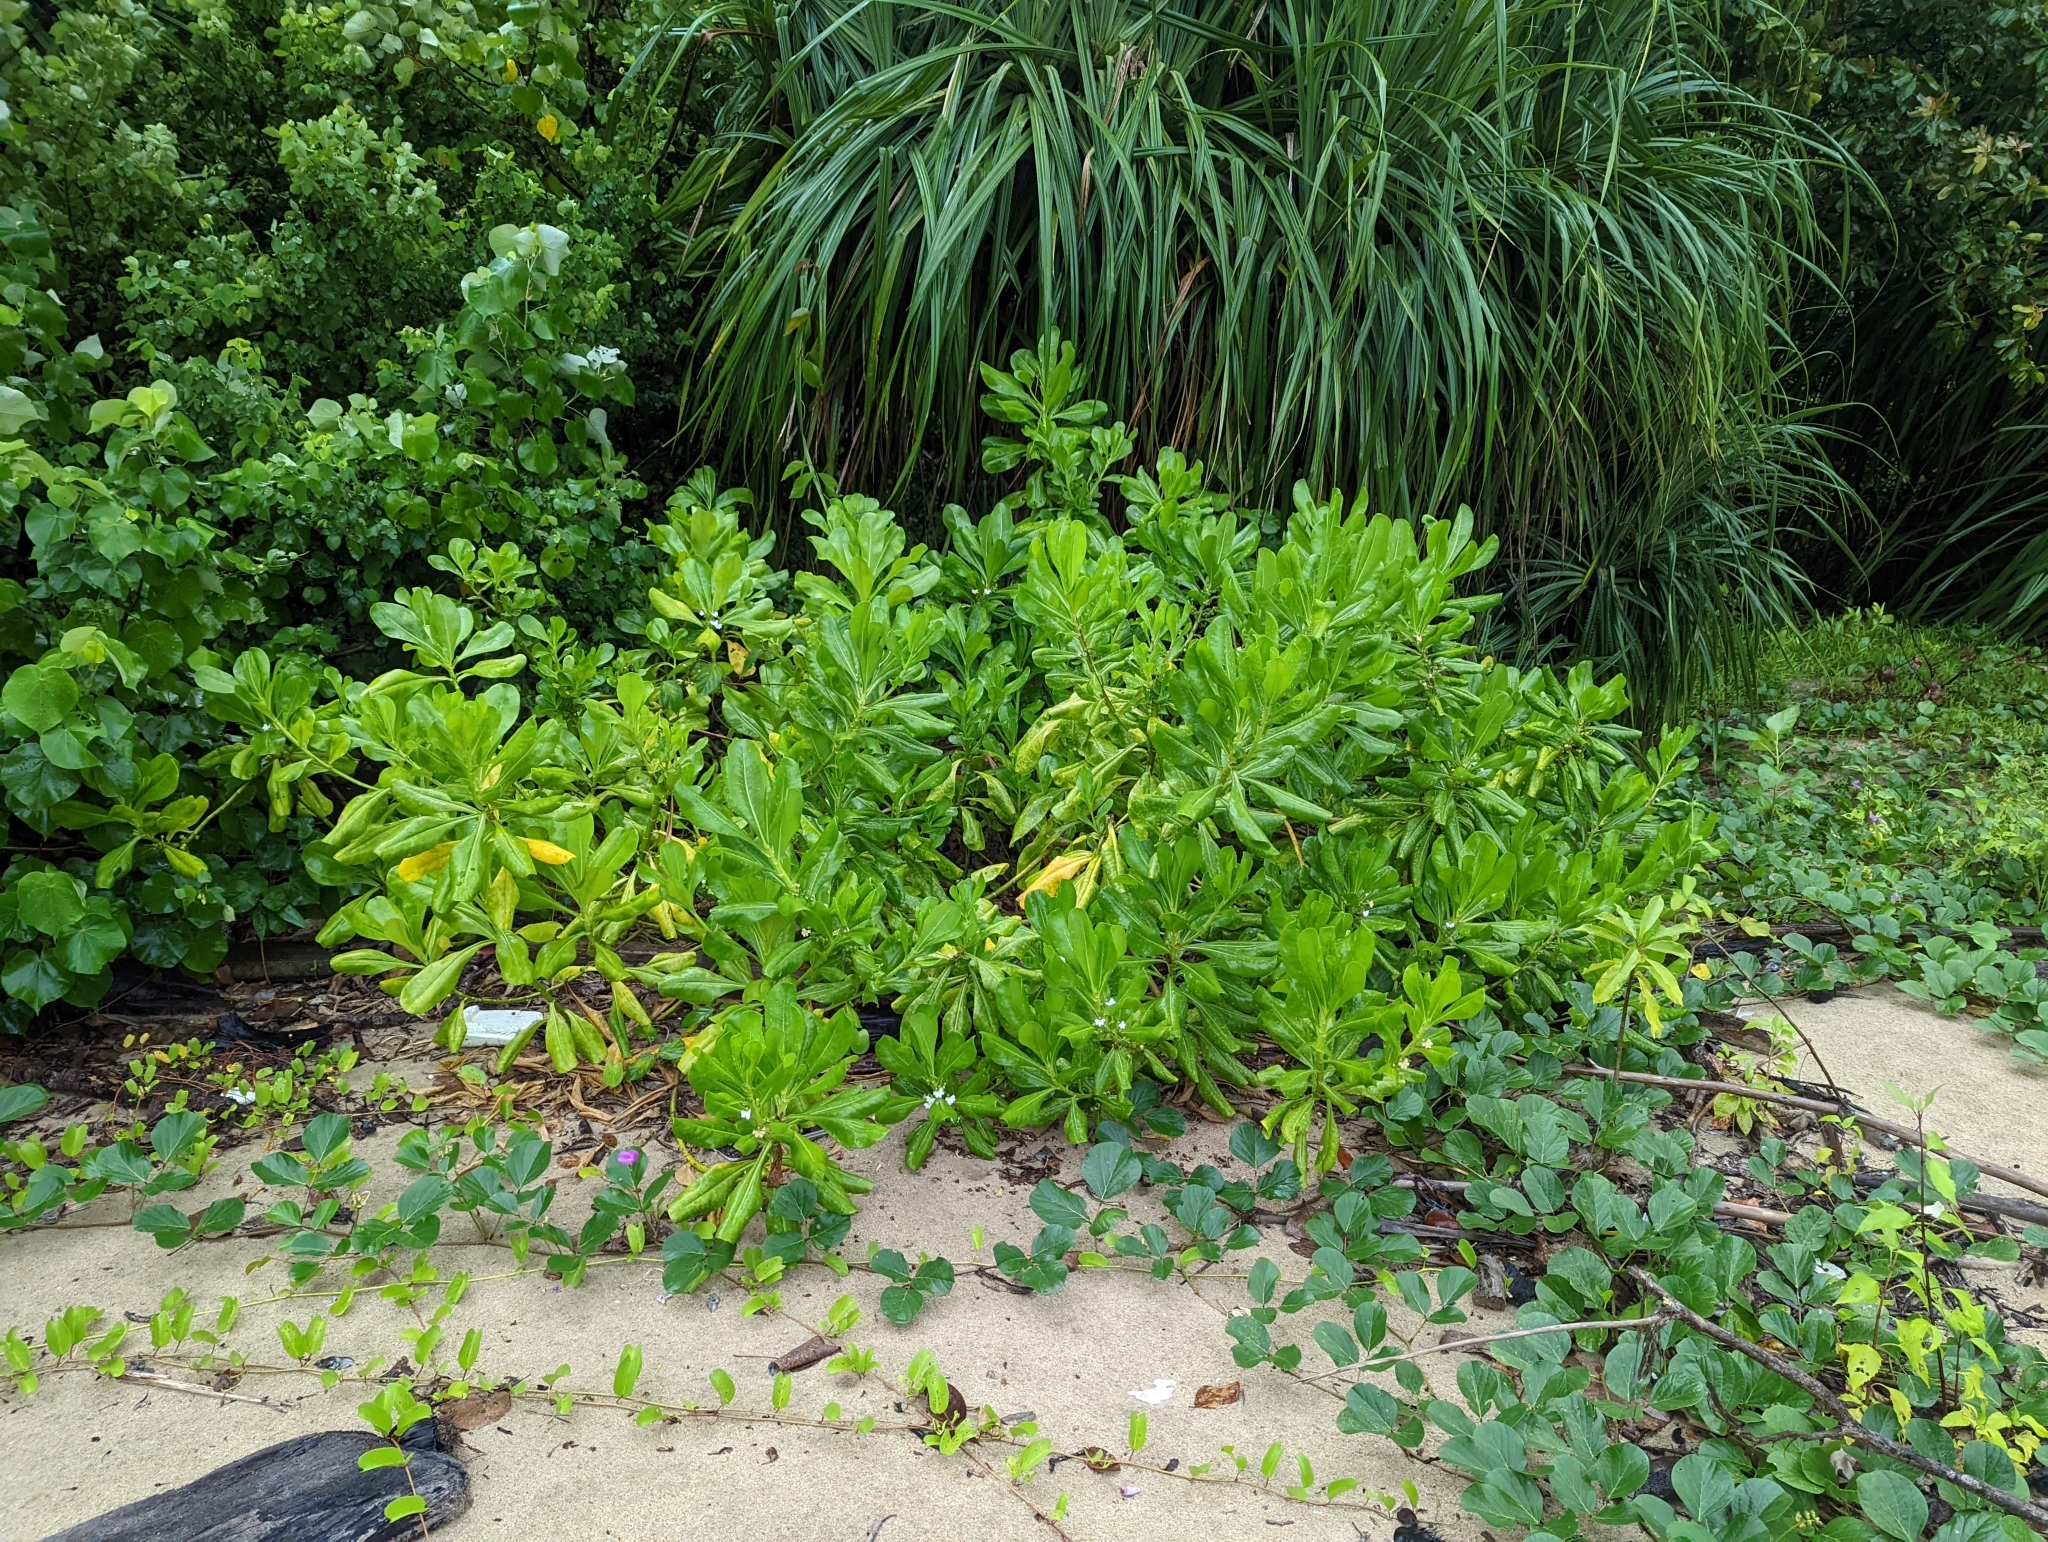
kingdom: Plantae
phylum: Tracheophyta
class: Magnoliopsida
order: Asterales
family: Goodeniaceae
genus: Scaevola
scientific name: Scaevola taccada
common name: Sea lettucetree
